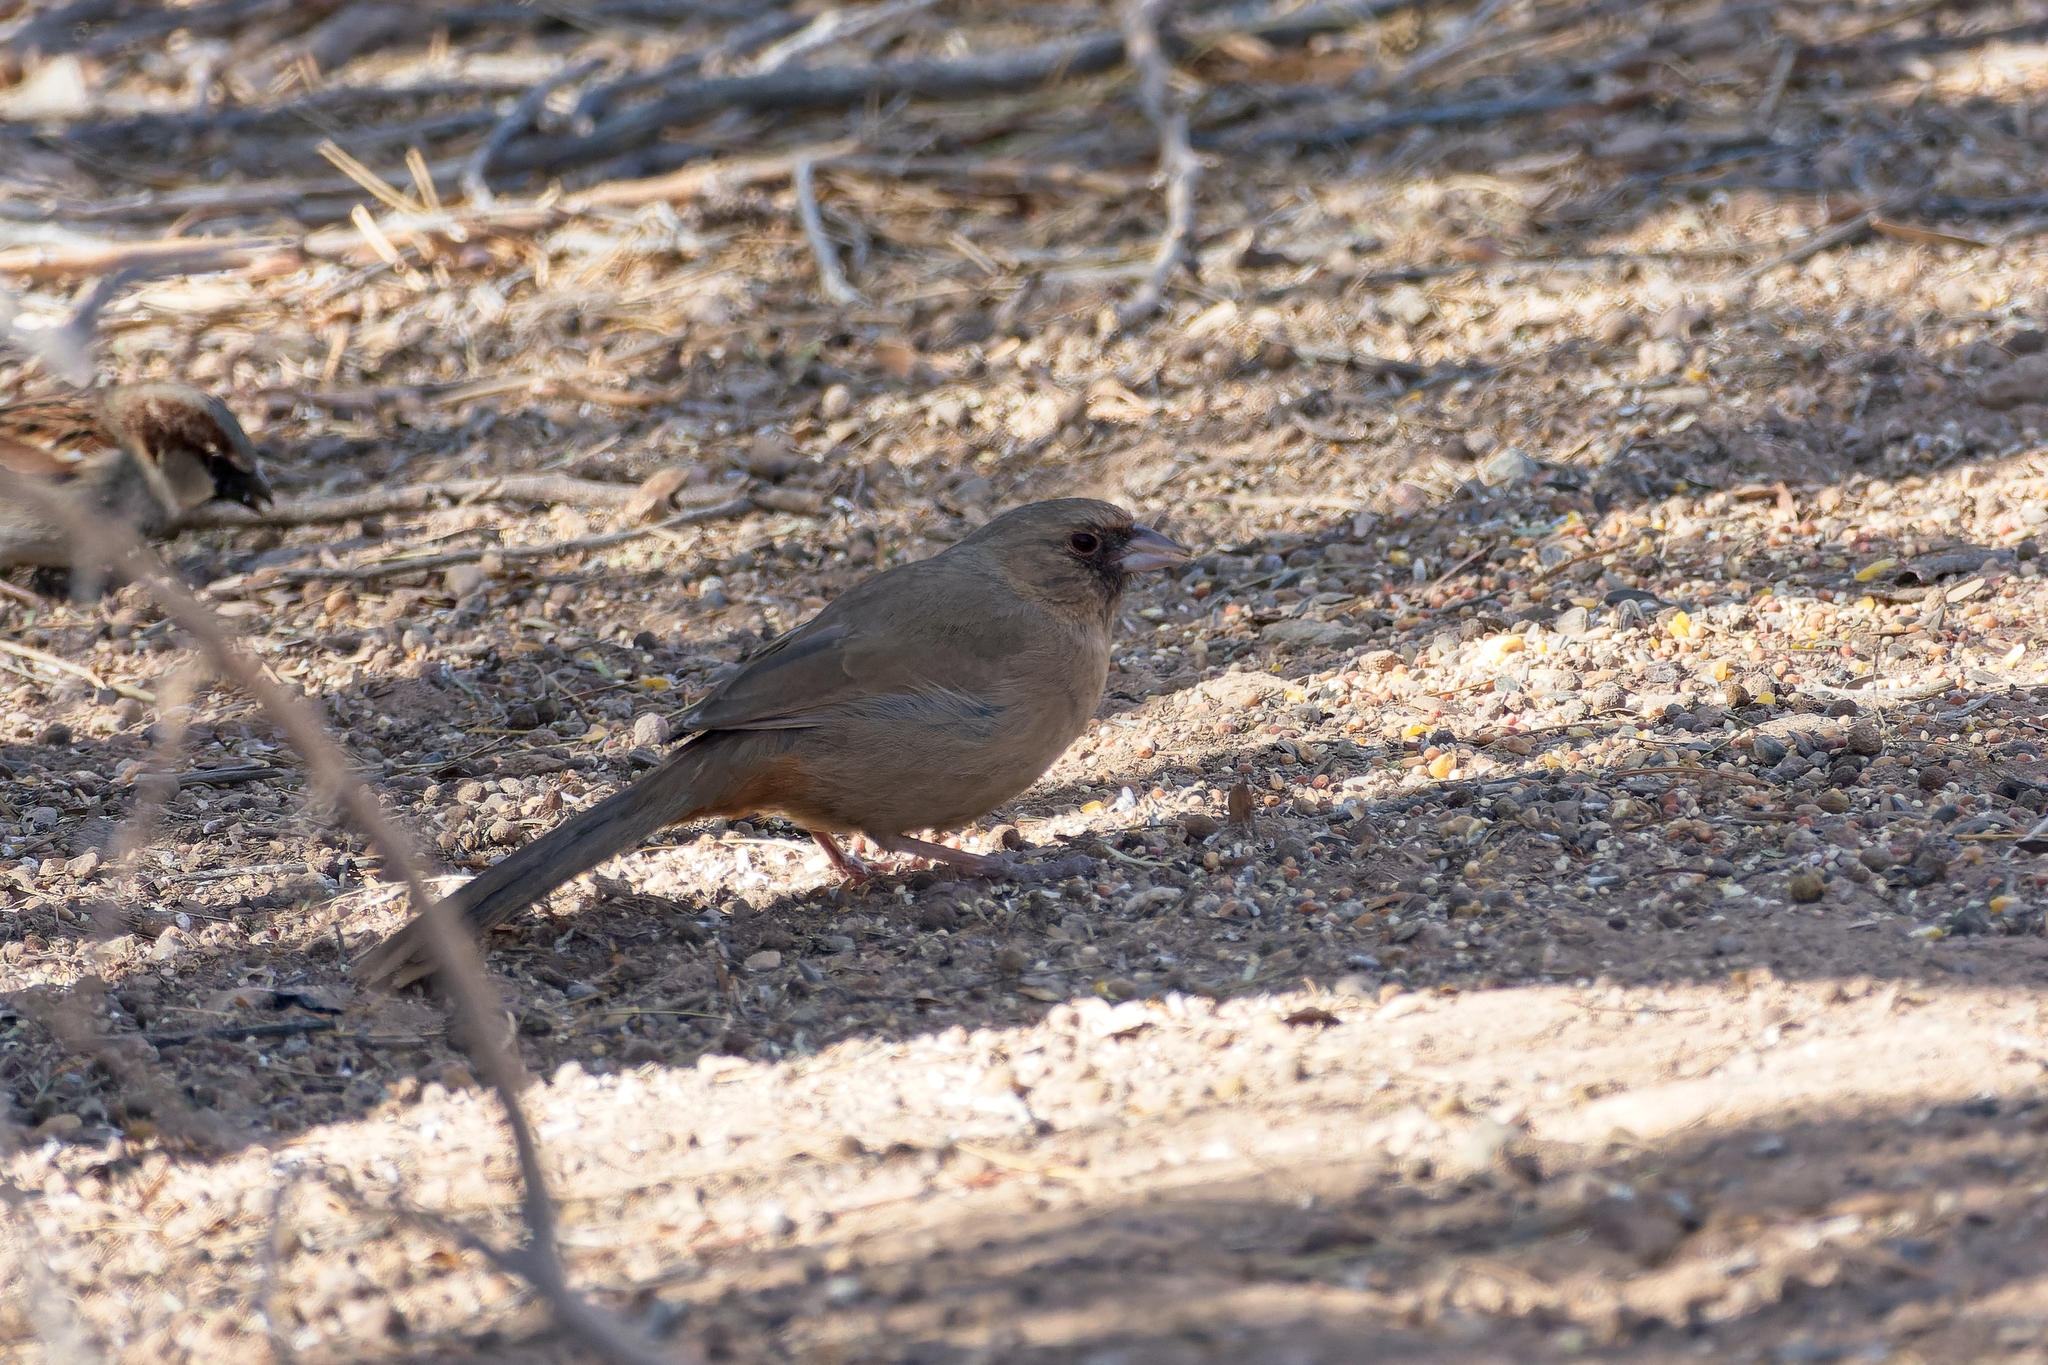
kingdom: Animalia
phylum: Chordata
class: Aves
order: Passeriformes
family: Passerellidae
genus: Melozone
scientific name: Melozone aberti
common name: Abert's towhee
